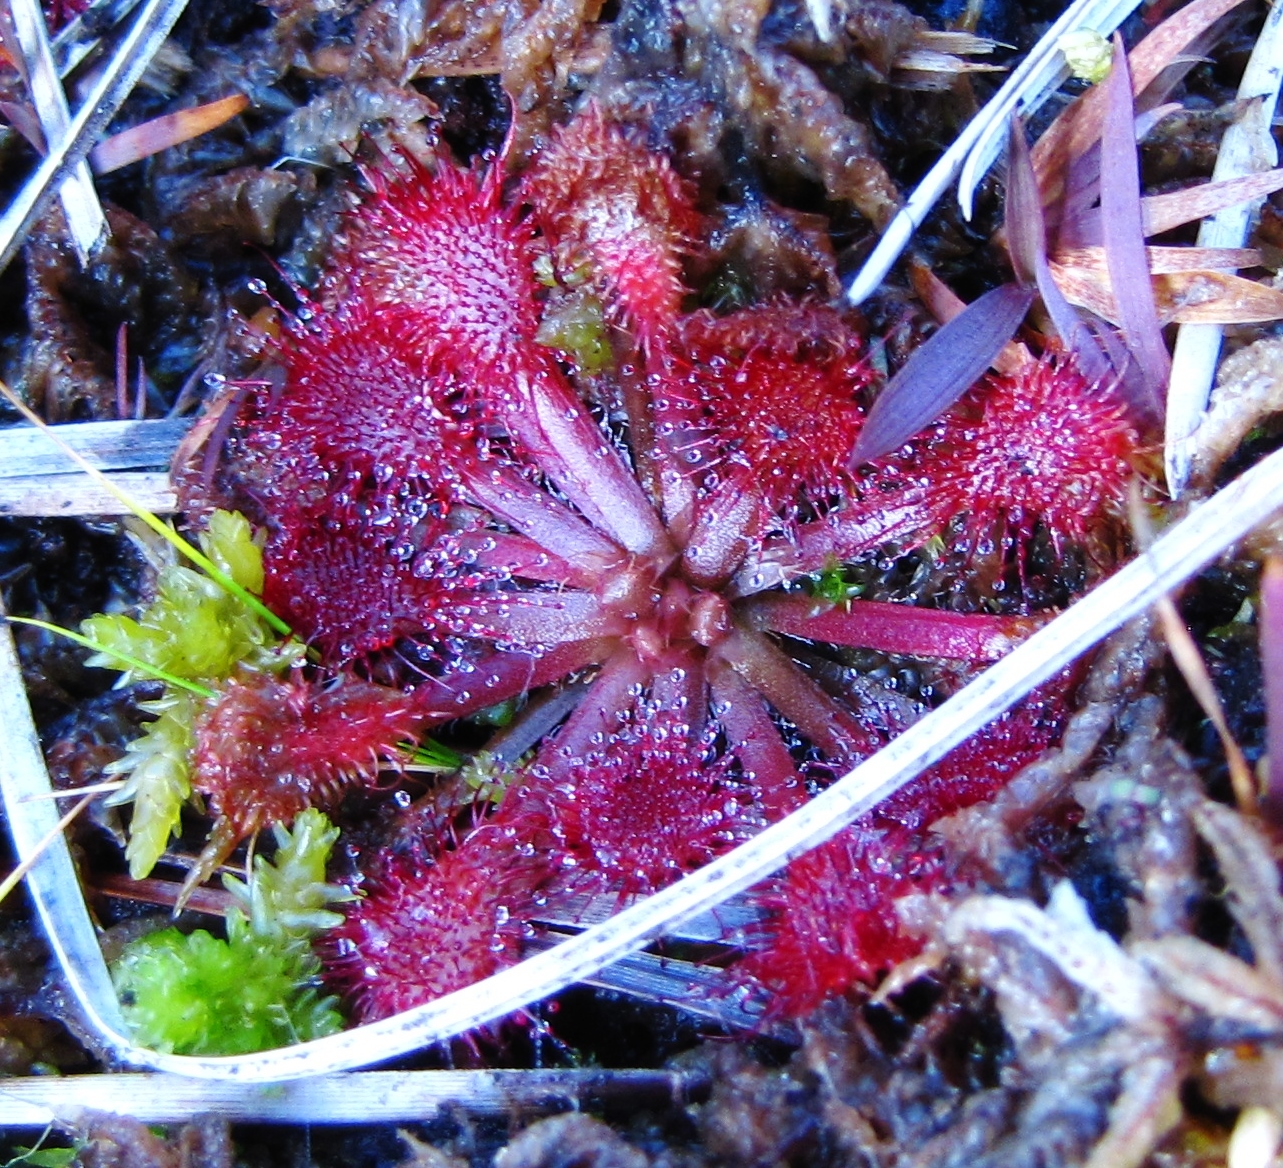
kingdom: Plantae
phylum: Tracheophyta
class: Magnoliopsida
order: Caryophyllales
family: Droseraceae
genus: Drosera
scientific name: Drosera capillaris
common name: Pink sundew
